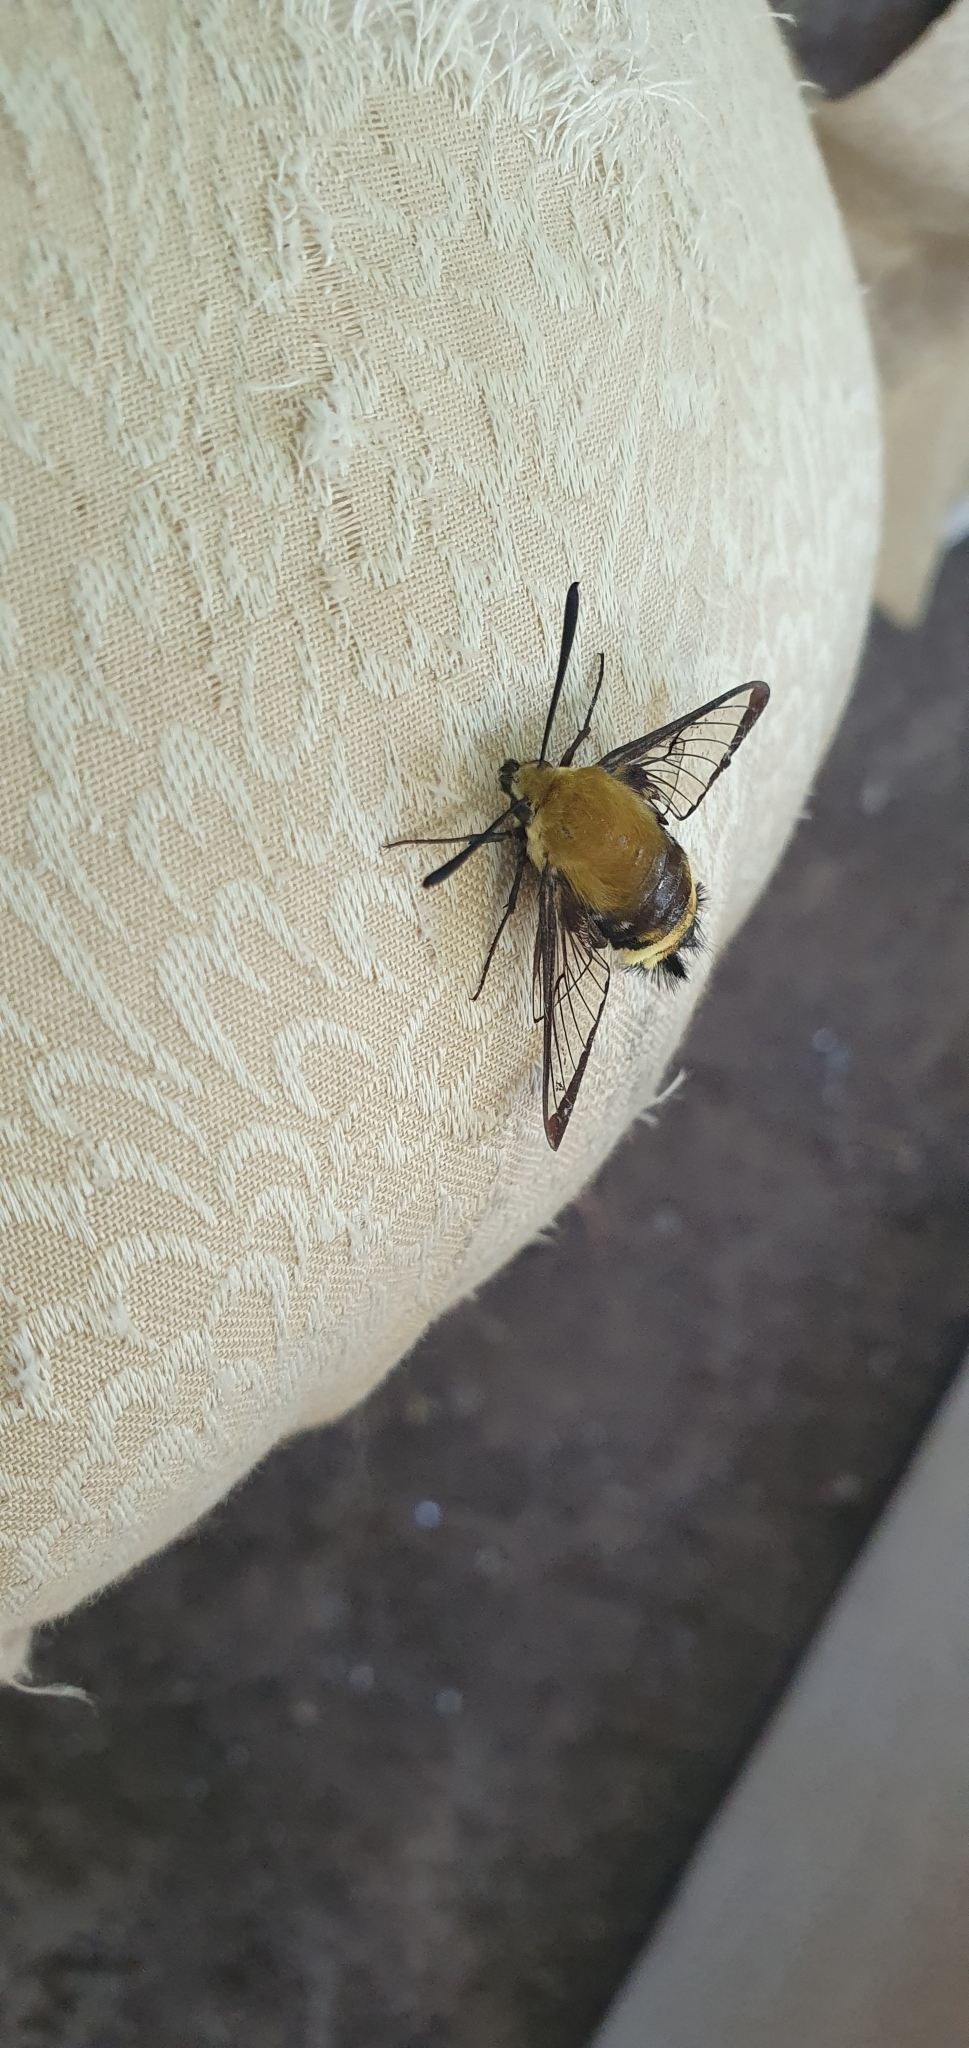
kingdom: Animalia
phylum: Arthropoda
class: Insecta
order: Lepidoptera
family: Sphingidae
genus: Hemaris
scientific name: Hemaris thetis
